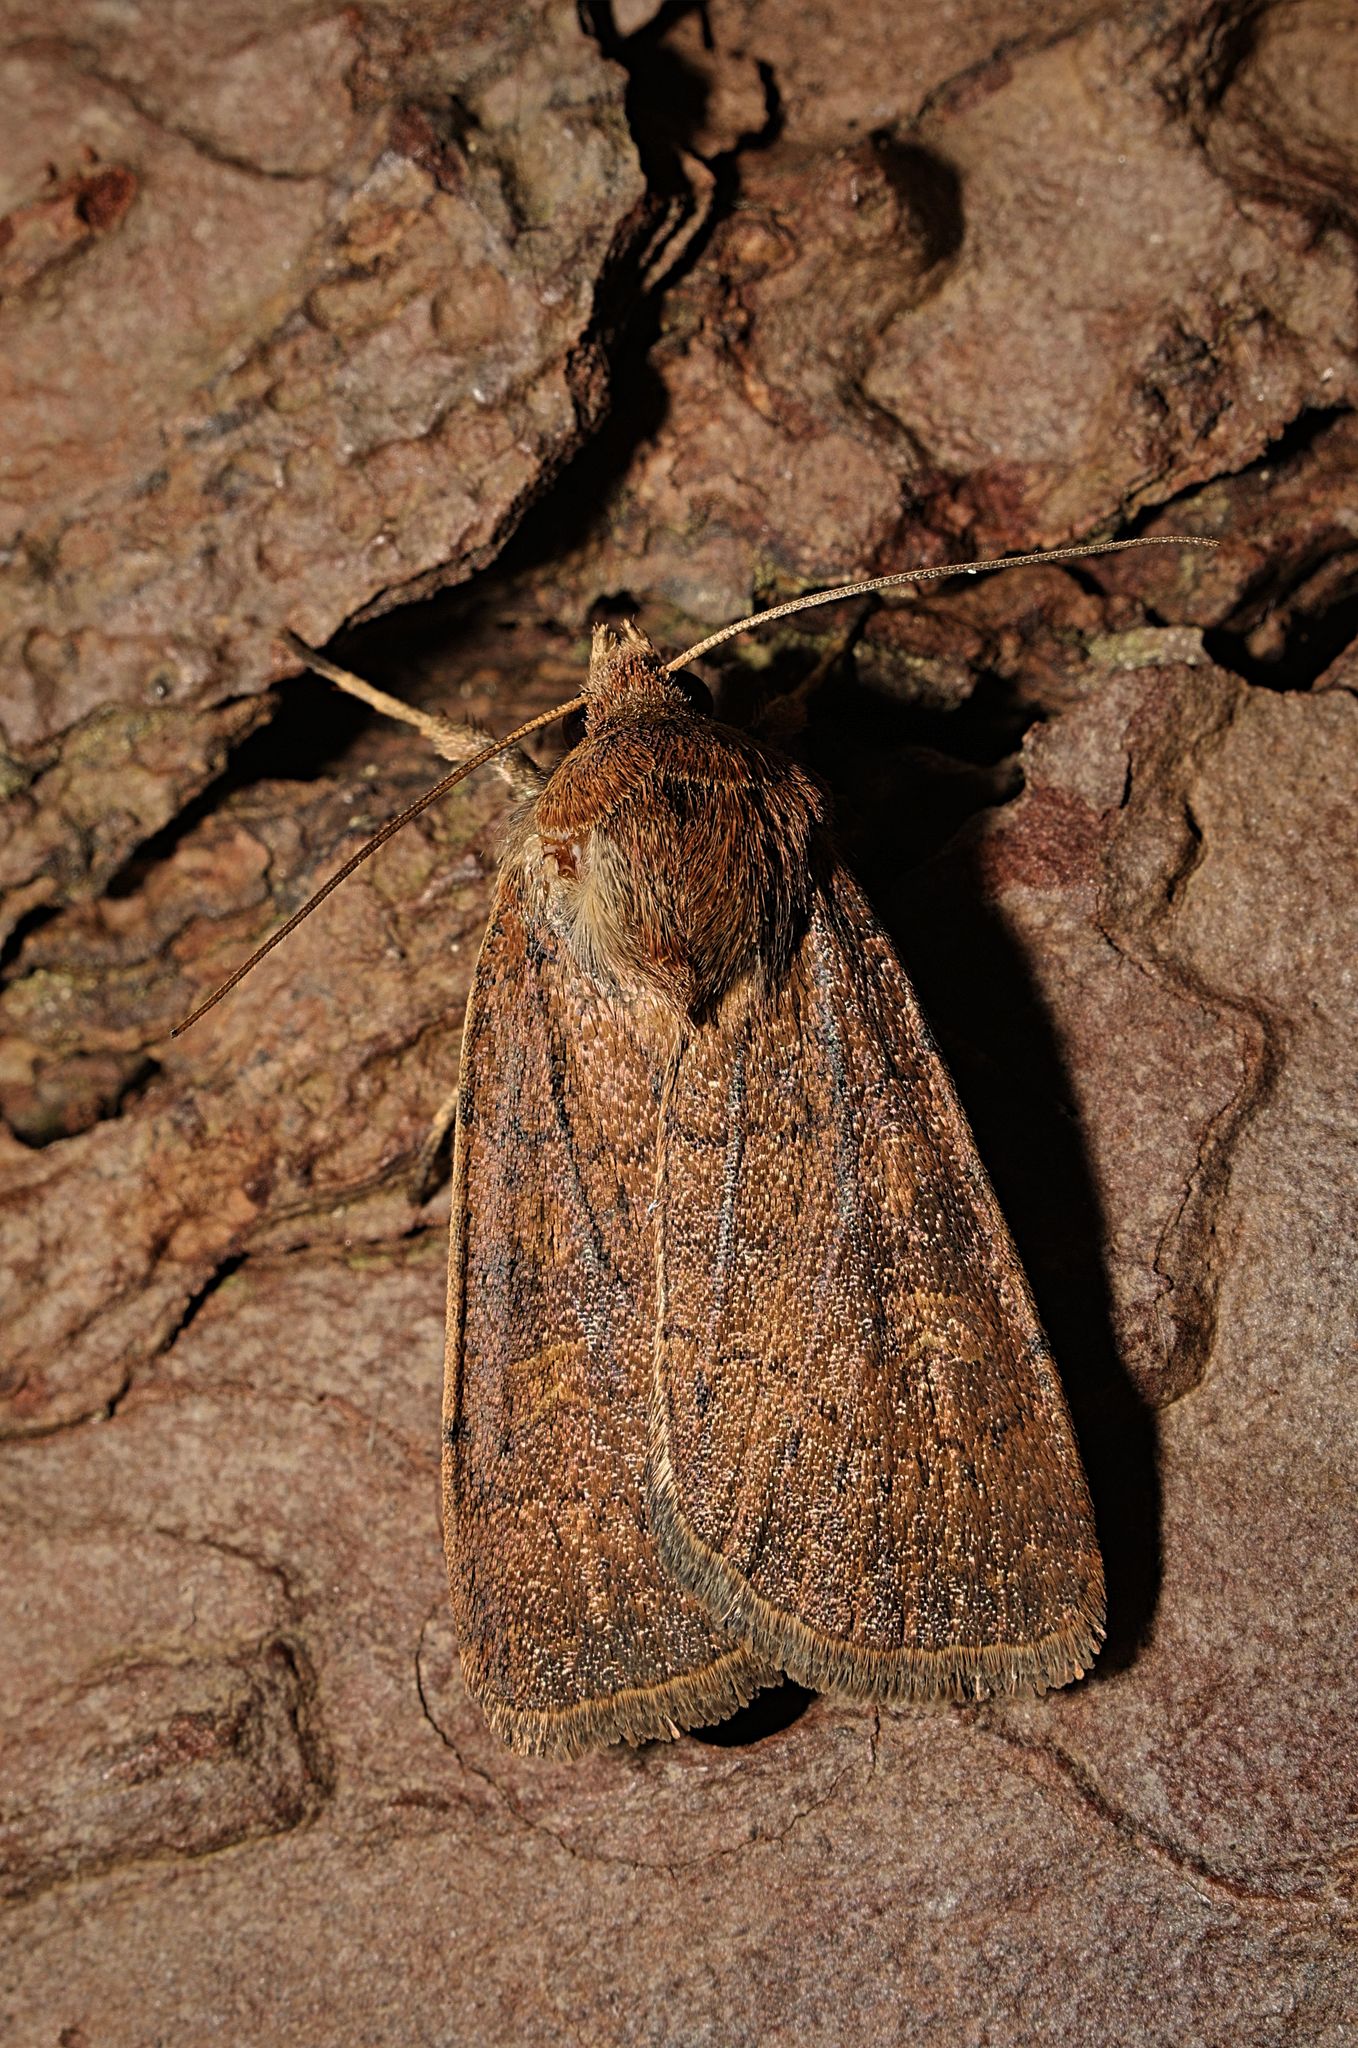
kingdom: Animalia
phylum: Arthropoda
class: Insecta
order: Lepidoptera
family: Noctuidae
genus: Xestia
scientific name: Xestia xanthographa
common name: Square-spot rustic
